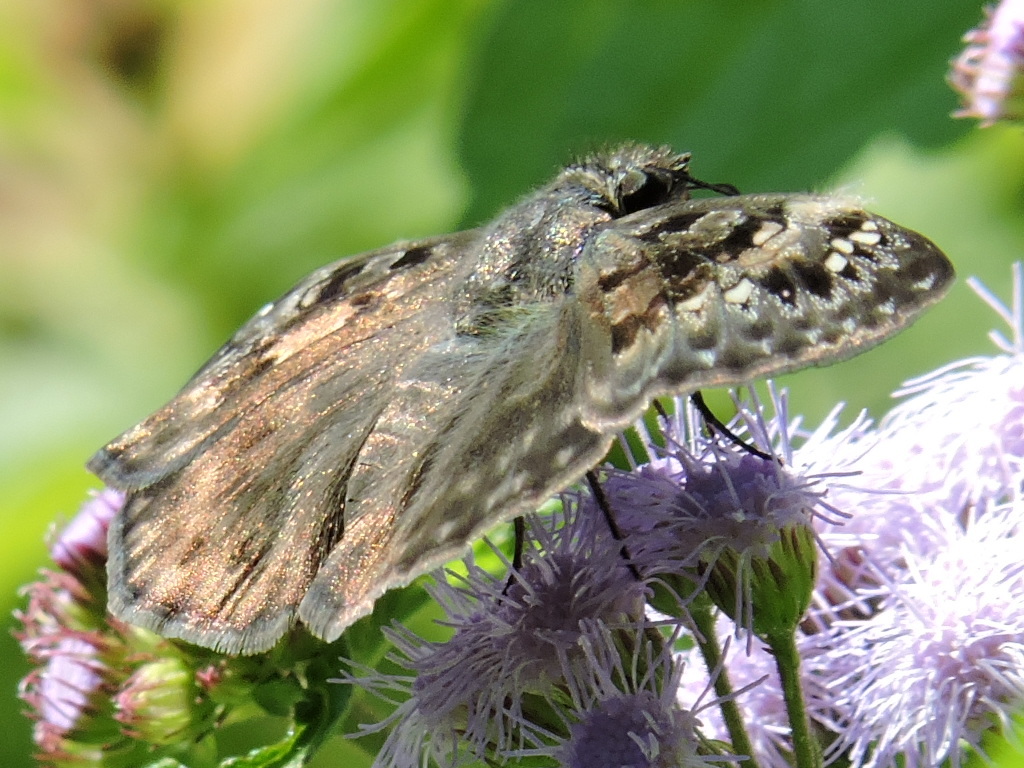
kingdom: Animalia
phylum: Arthropoda
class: Insecta
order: Lepidoptera
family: Hesperiidae
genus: Erynnis
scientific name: Erynnis horatius
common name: Horace's duskywing
